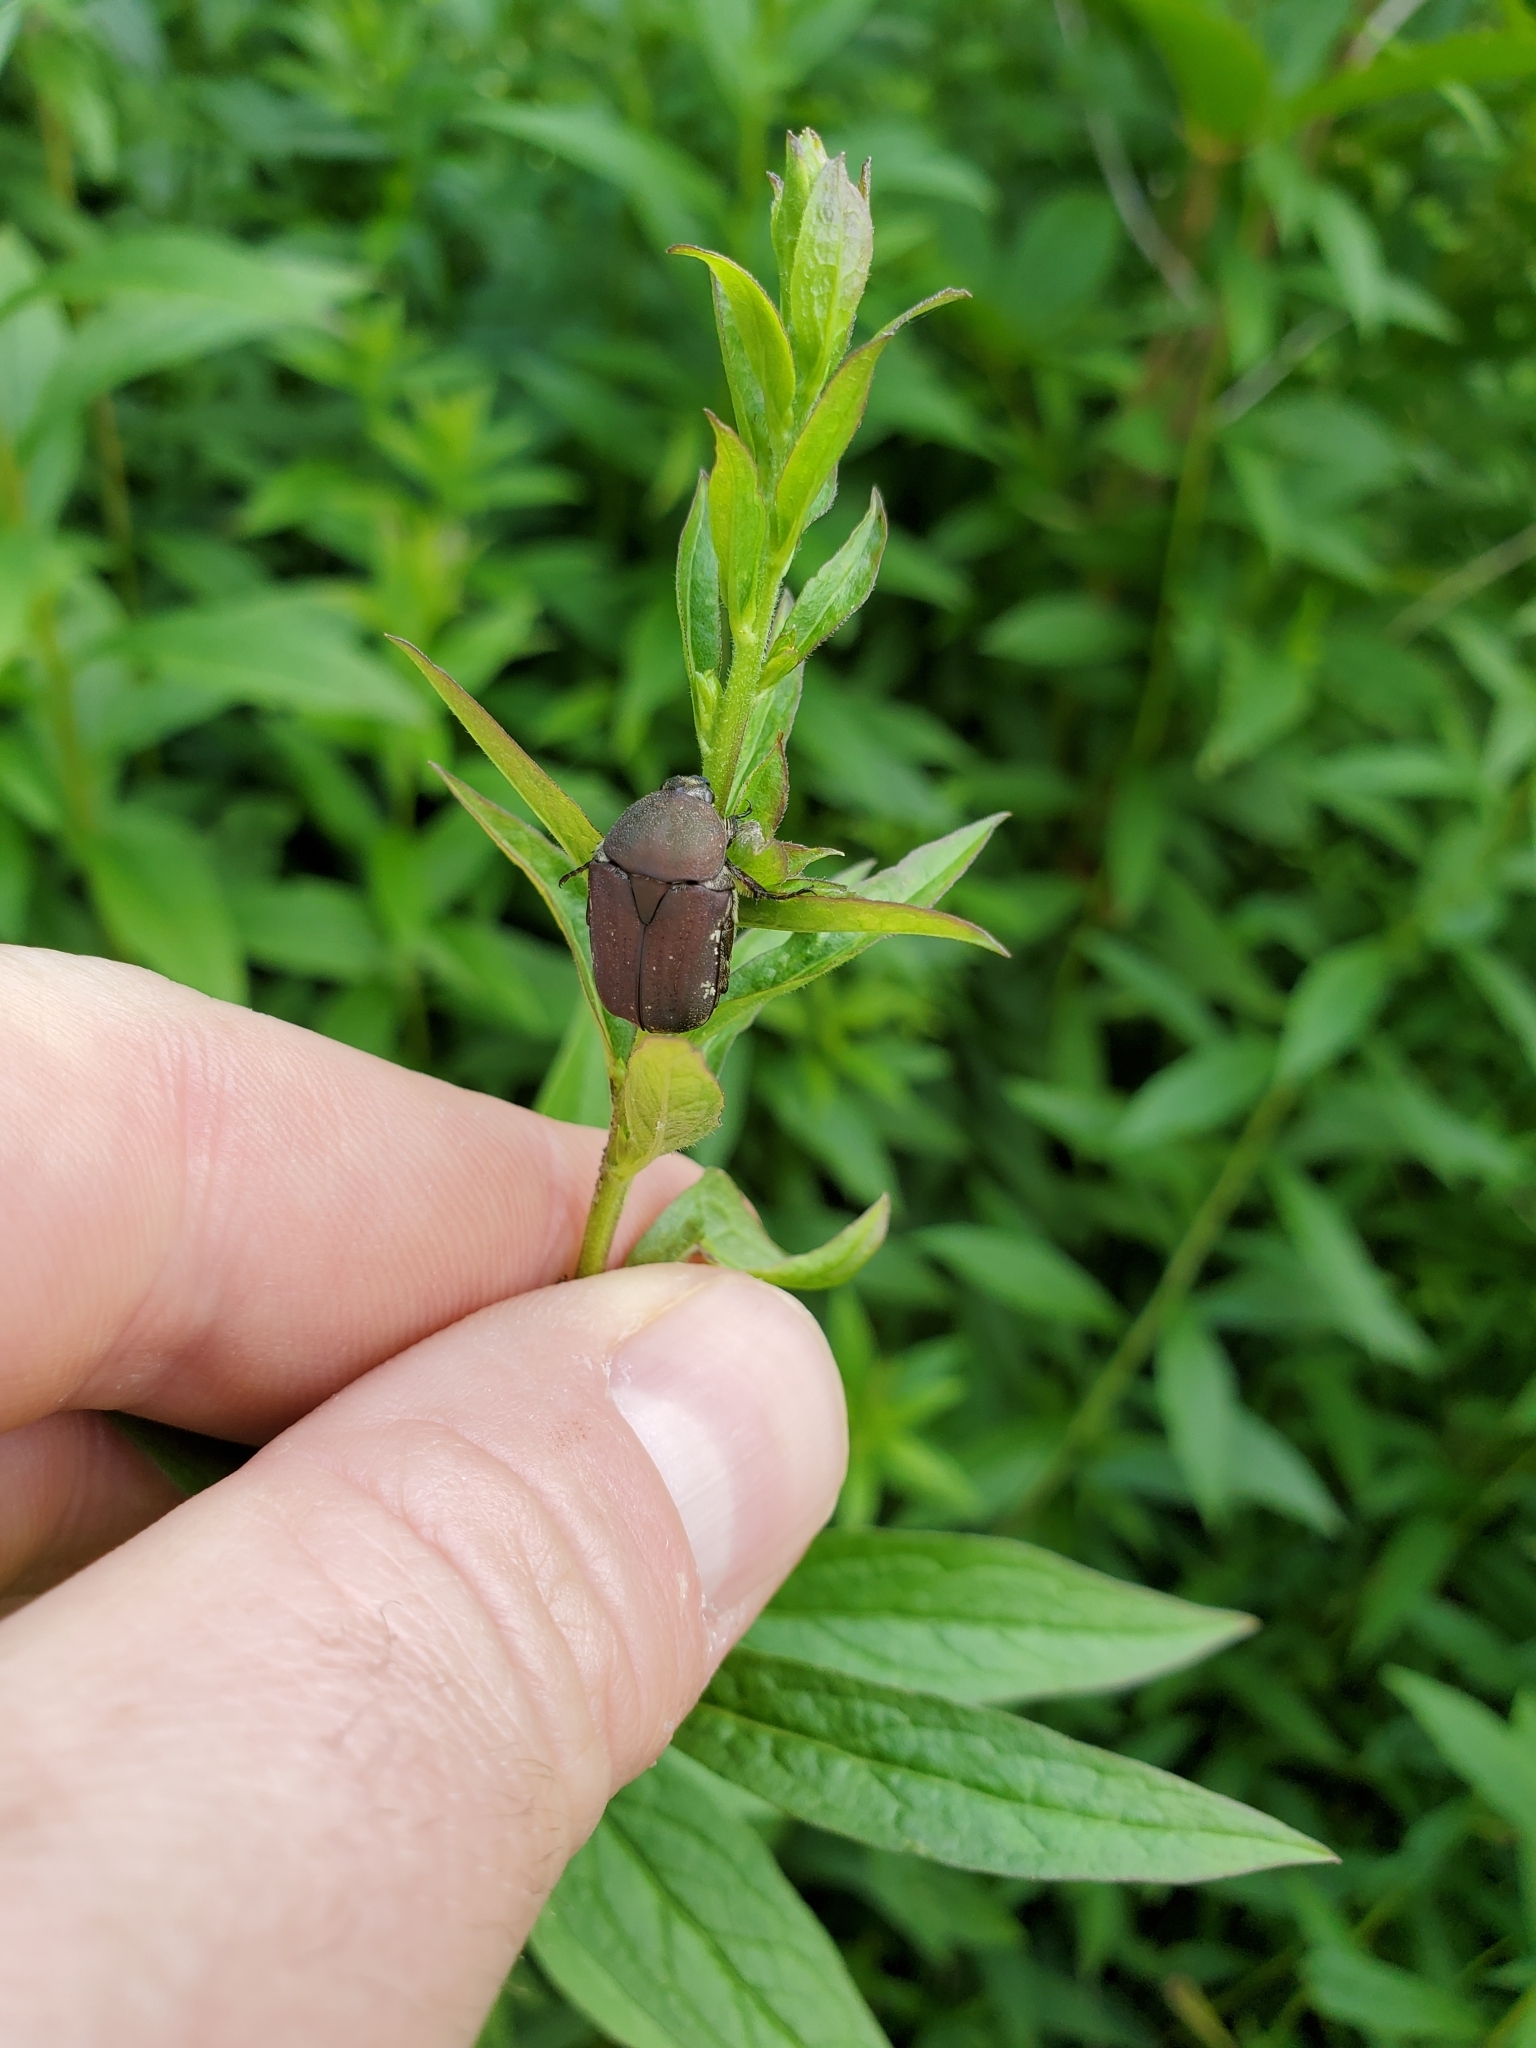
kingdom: Animalia
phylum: Arthropoda
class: Insecta
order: Coleoptera
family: Scarabaeidae
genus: Euphoria
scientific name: Euphoria herbacea
